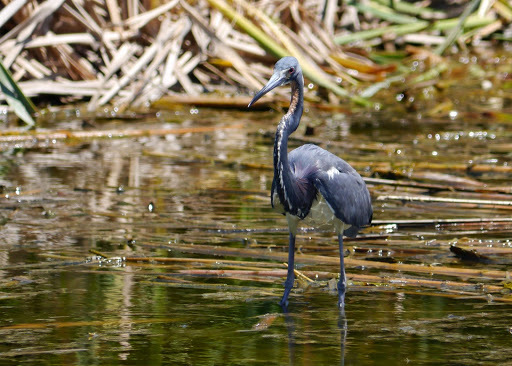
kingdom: Animalia
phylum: Chordata
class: Aves
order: Pelecaniformes
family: Ardeidae
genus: Egretta
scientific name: Egretta tricolor
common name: Tricolored heron
